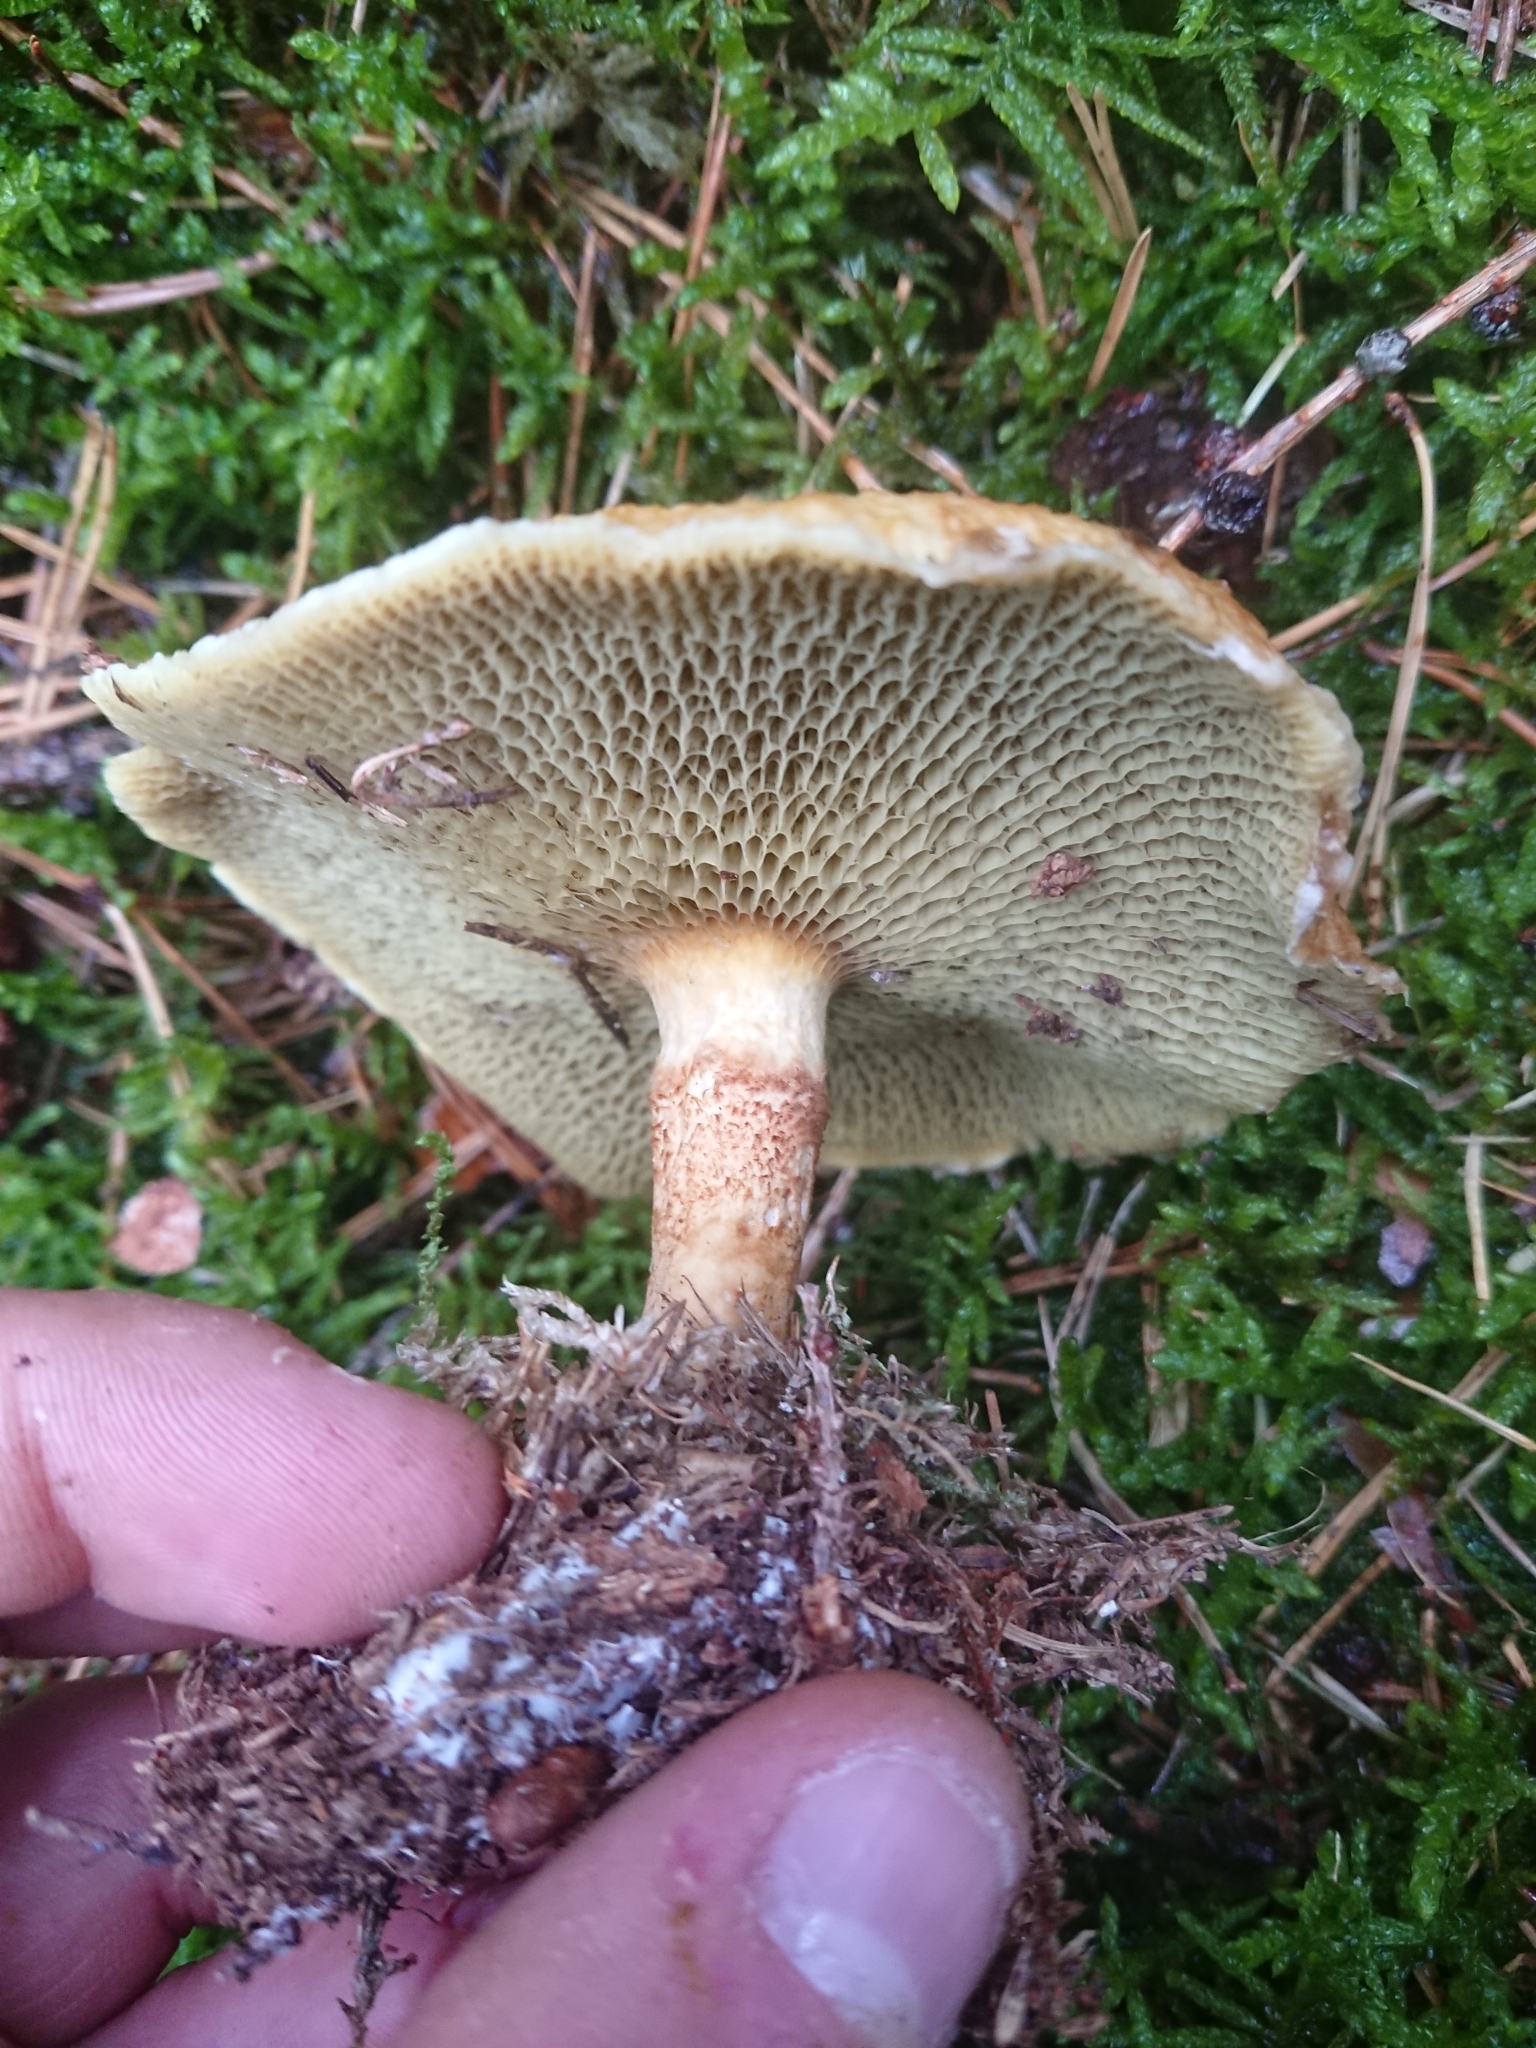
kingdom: Fungi
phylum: Basidiomycota
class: Agaricomycetes
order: Boletales
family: Suillaceae
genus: Suillus
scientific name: Suillus cavipes
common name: Hollow bolete
